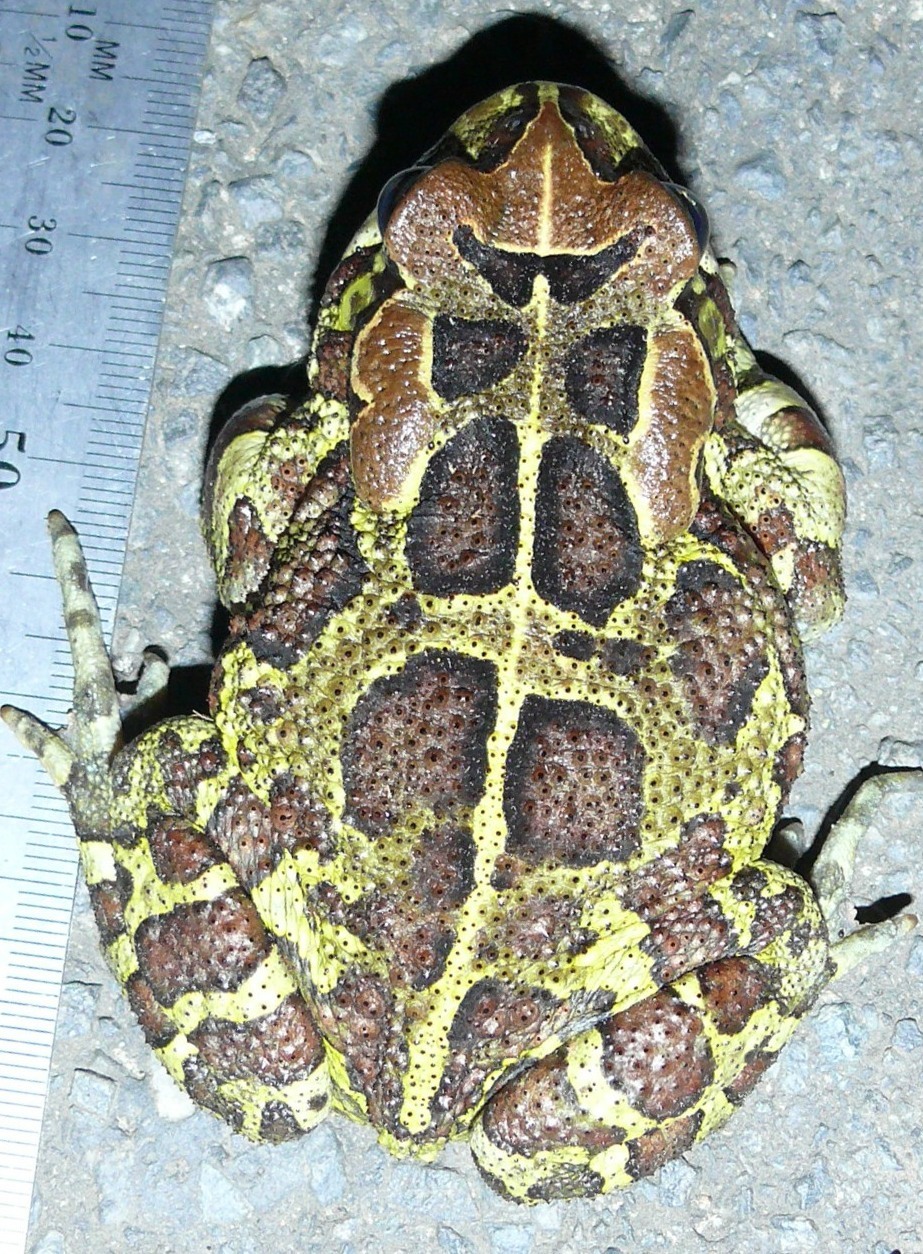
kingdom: Animalia
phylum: Chordata
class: Amphibia
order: Anura
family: Bufonidae
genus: Sclerophrys
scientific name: Sclerophrys pantherina
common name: Panther toad
